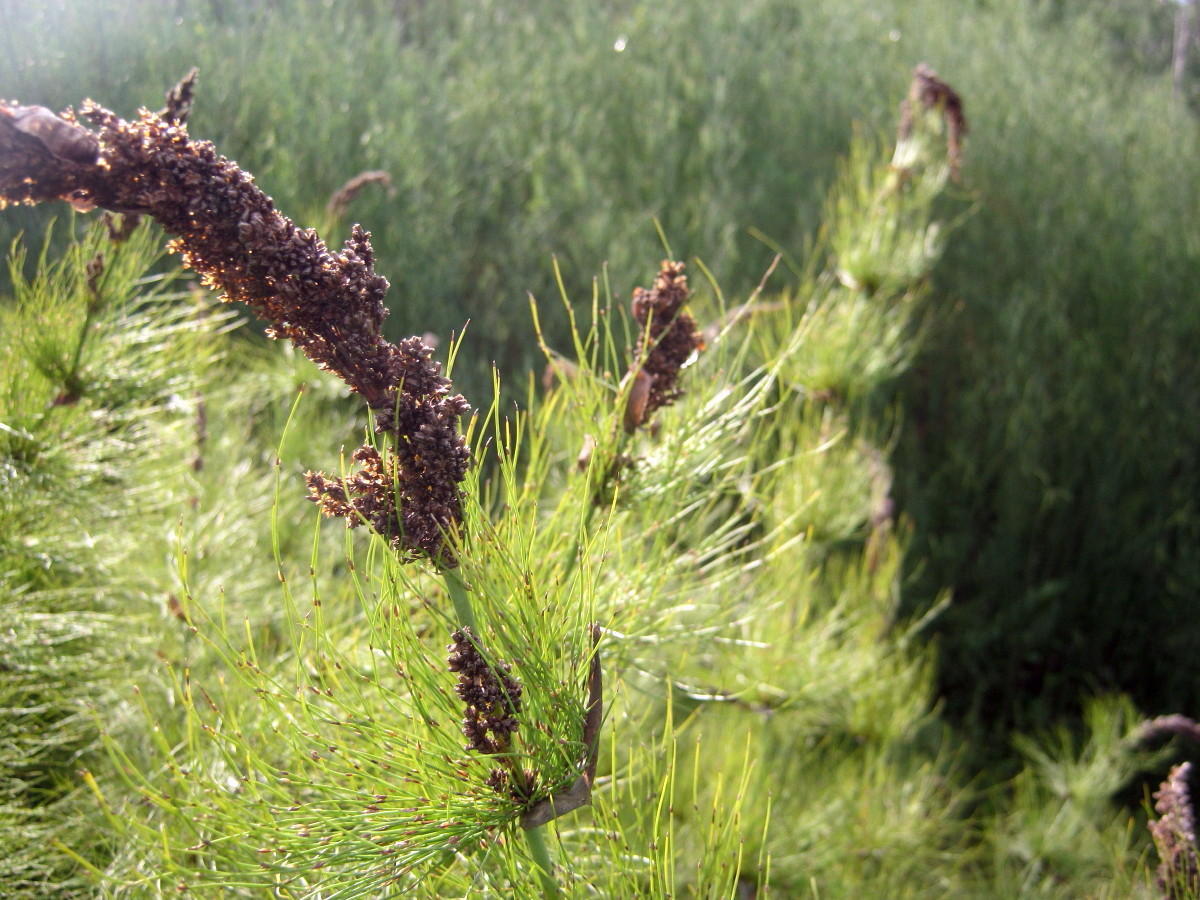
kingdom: Plantae
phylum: Tracheophyta
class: Liliopsida
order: Poales
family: Restionaceae
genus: Elegia
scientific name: Elegia capensis
